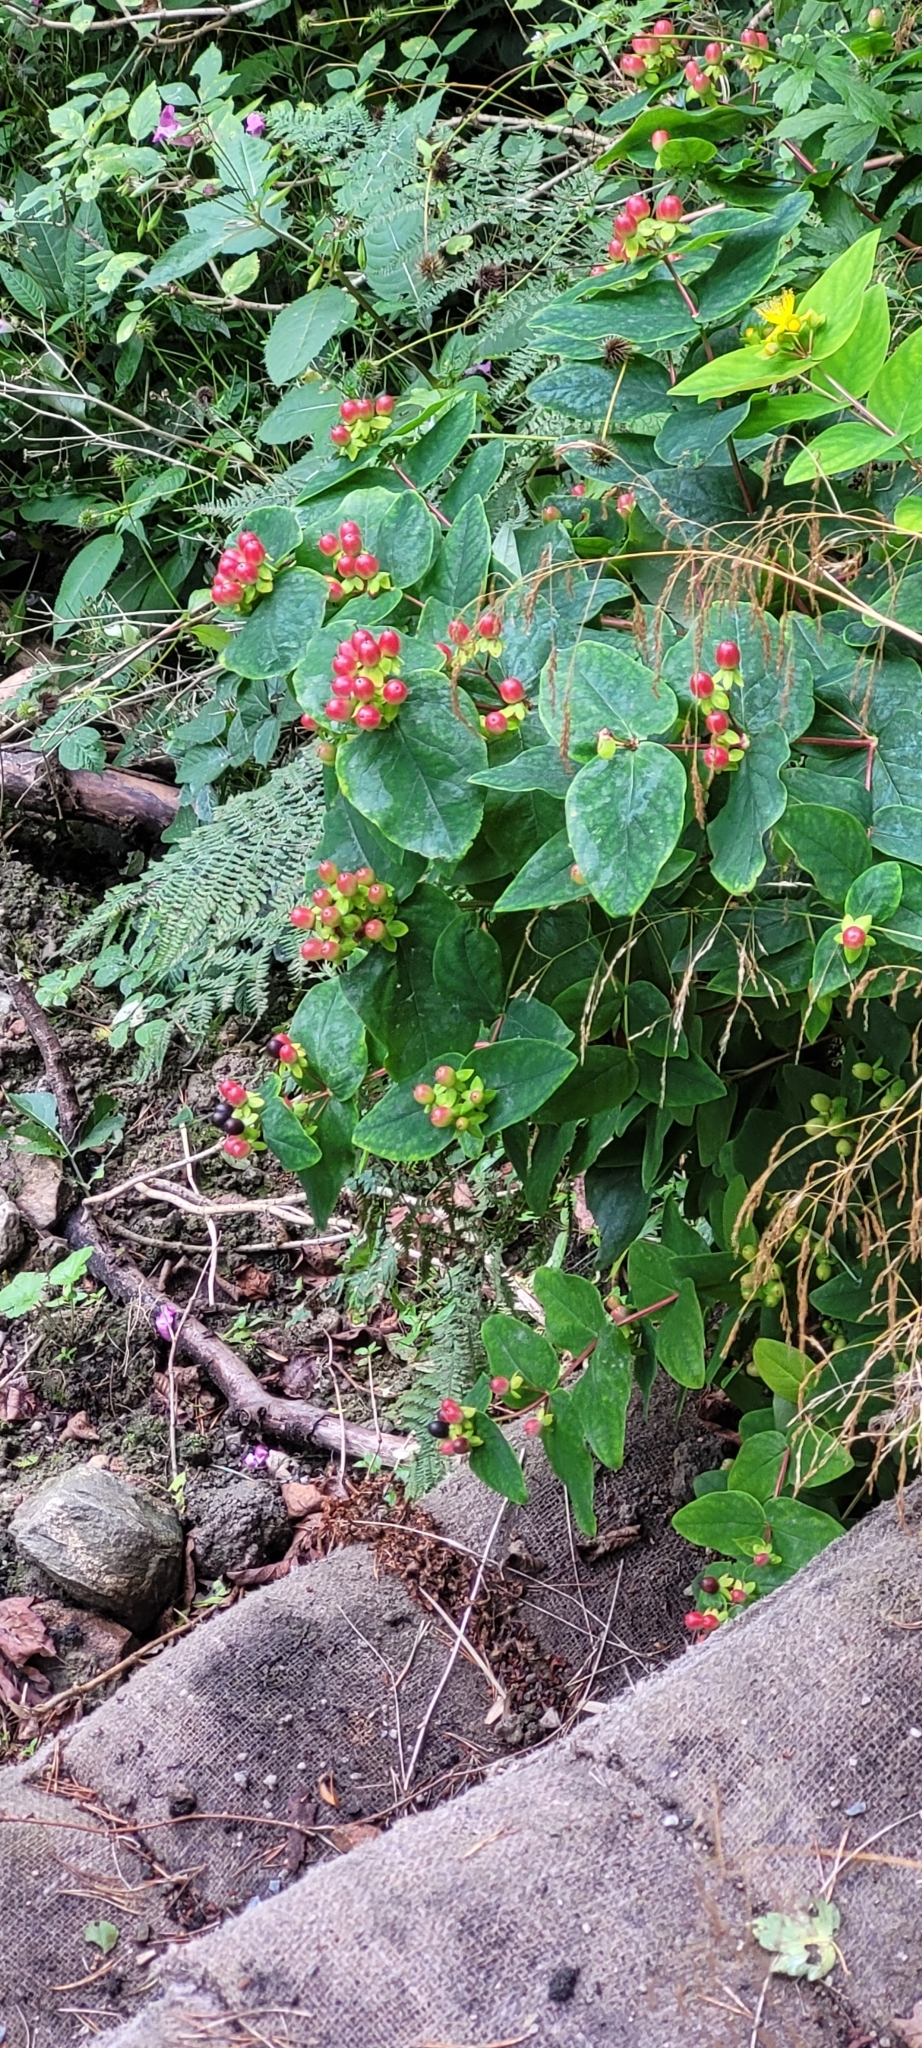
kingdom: Plantae
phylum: Tracheophyta
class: Magnoliopsida
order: Malpighiales
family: Hypericaceae
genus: Hypericum
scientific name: Hypericum androsaemum
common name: Sweet-amber
